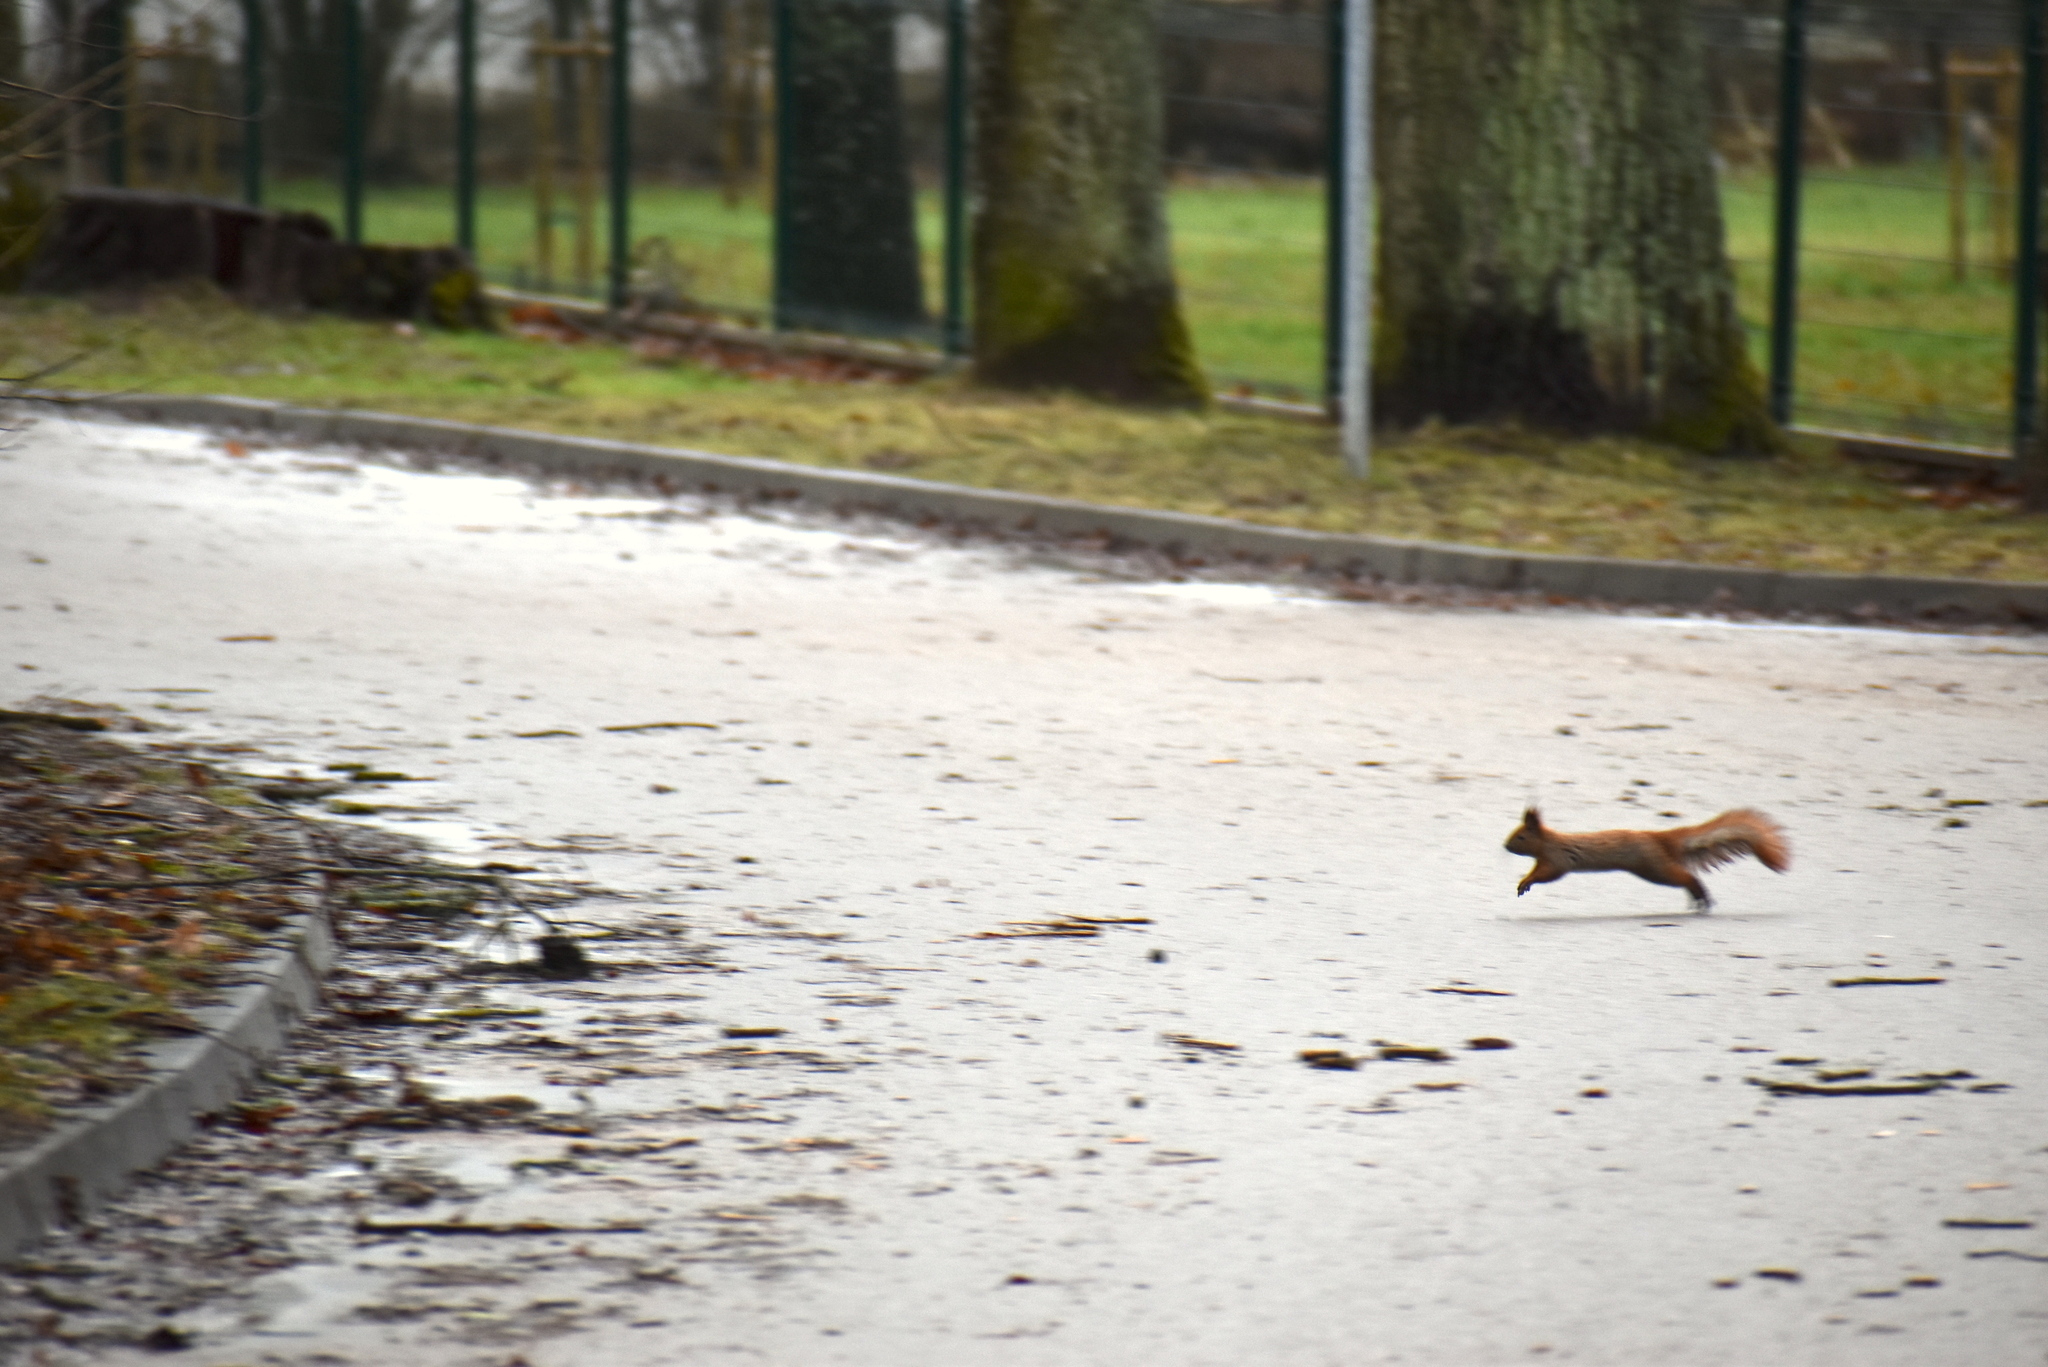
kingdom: Animalia
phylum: Chordata
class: Mammalia
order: Rodentia
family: Sciuridae
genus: Sciurus
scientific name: Sciurus vulgaris
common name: Eurasian red squirrel
